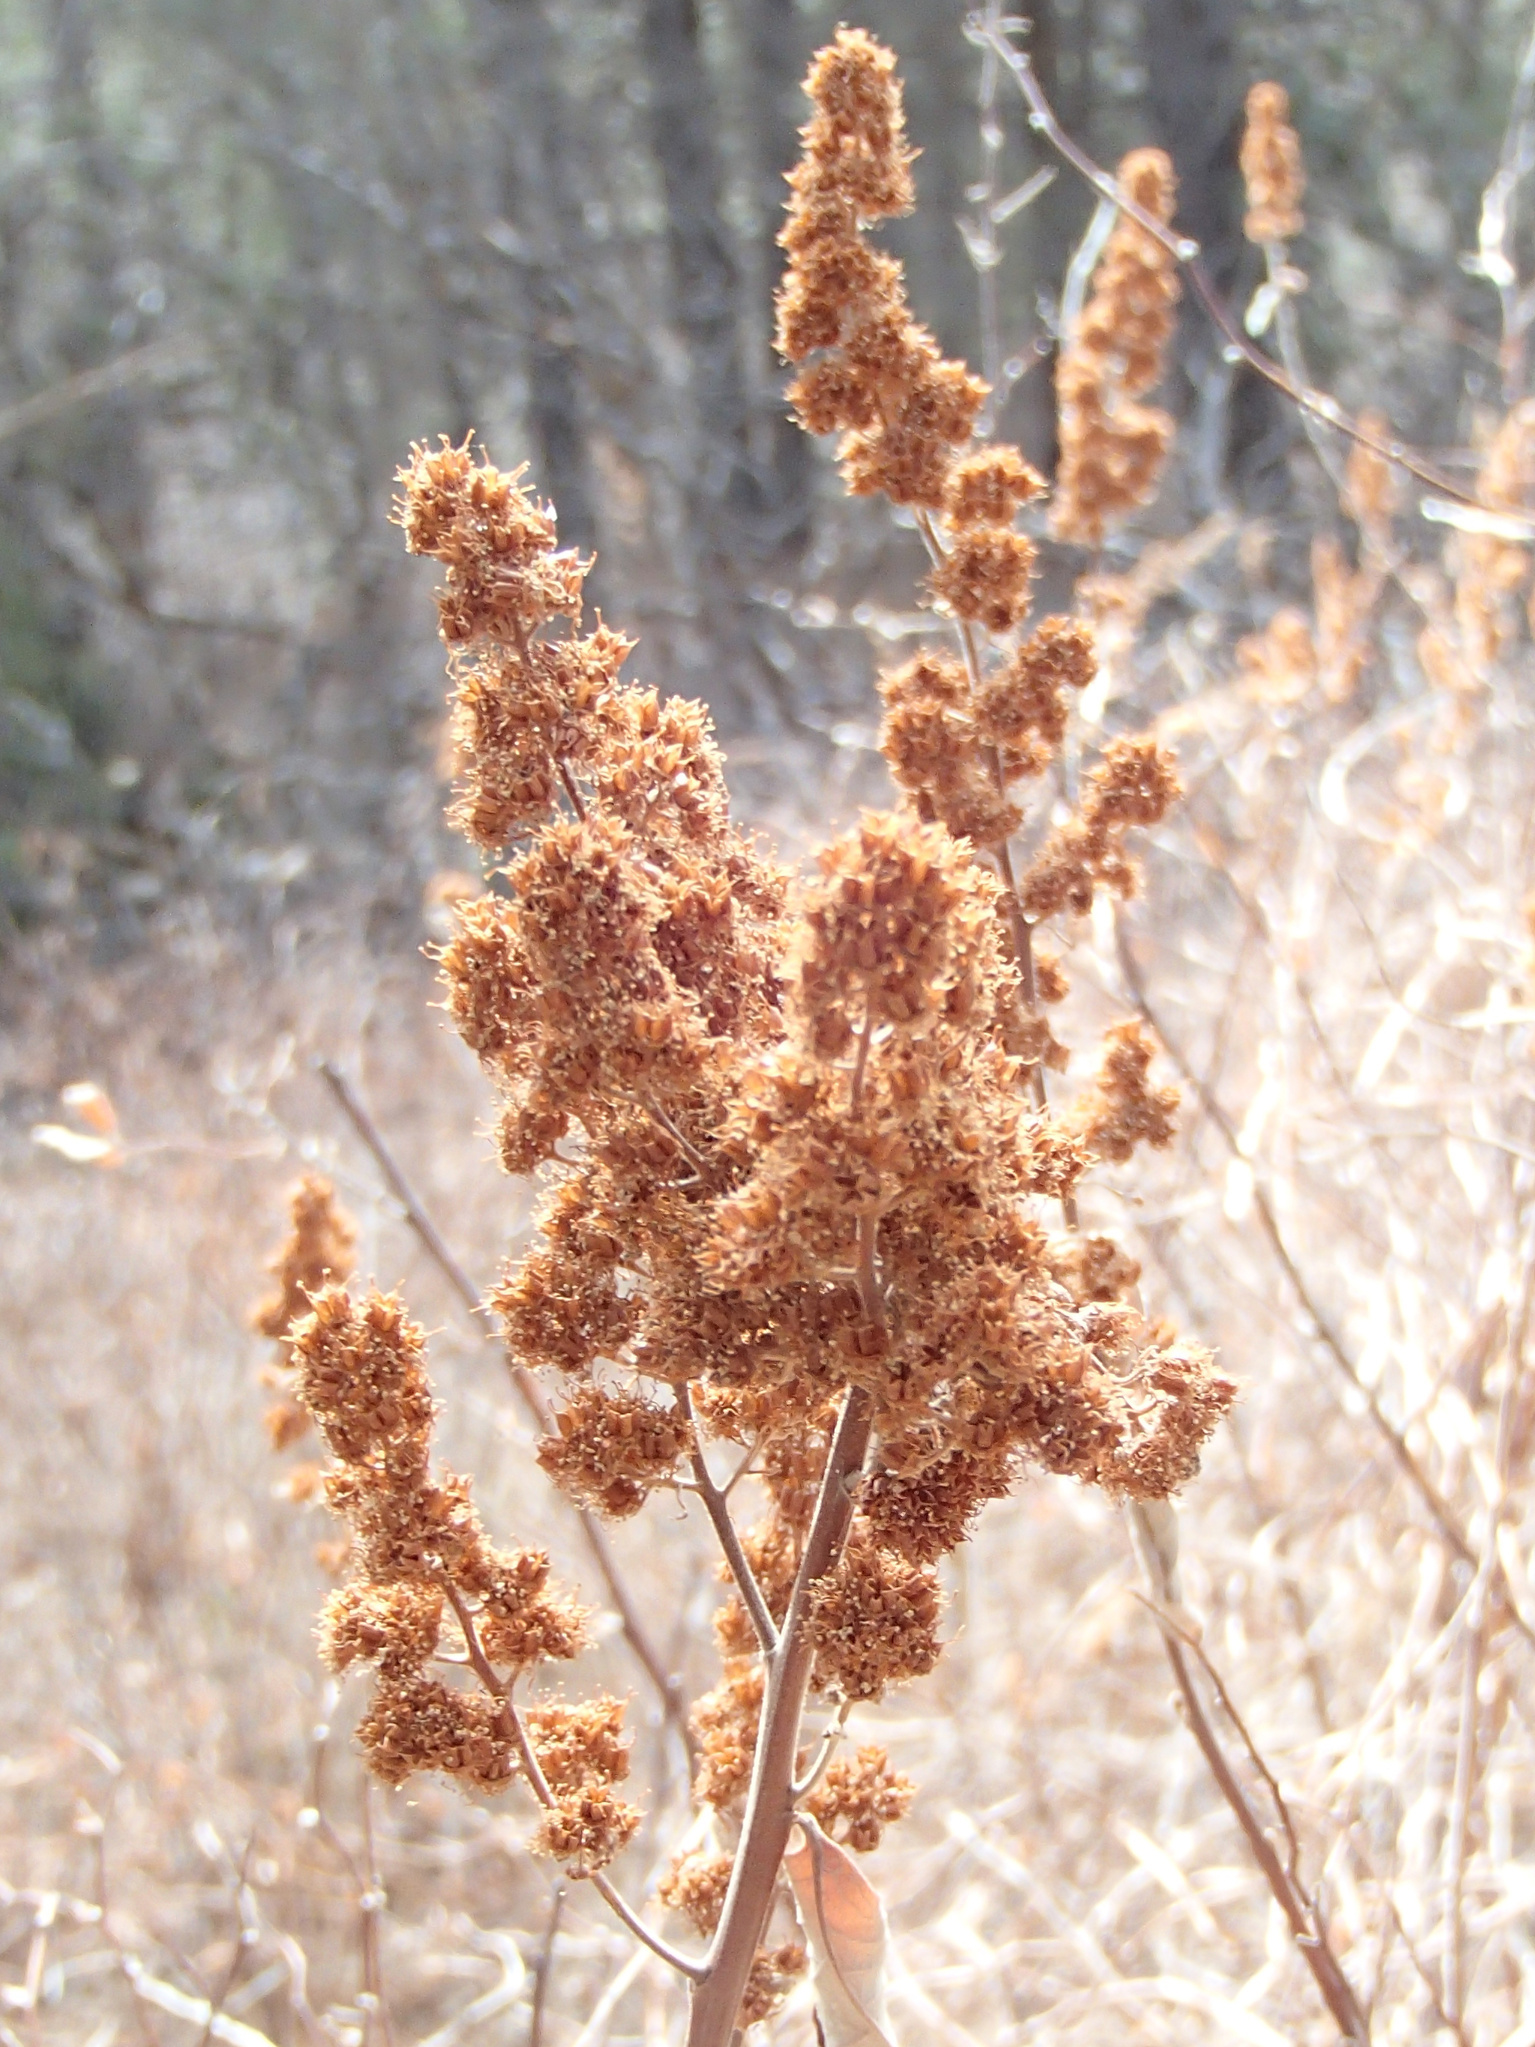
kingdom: Plantae
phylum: Tracheophyta
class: Magnoliopsida
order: Rosales
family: Rosaceae
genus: Spiraea
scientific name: Spiraea douglasii
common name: Steeplebush
